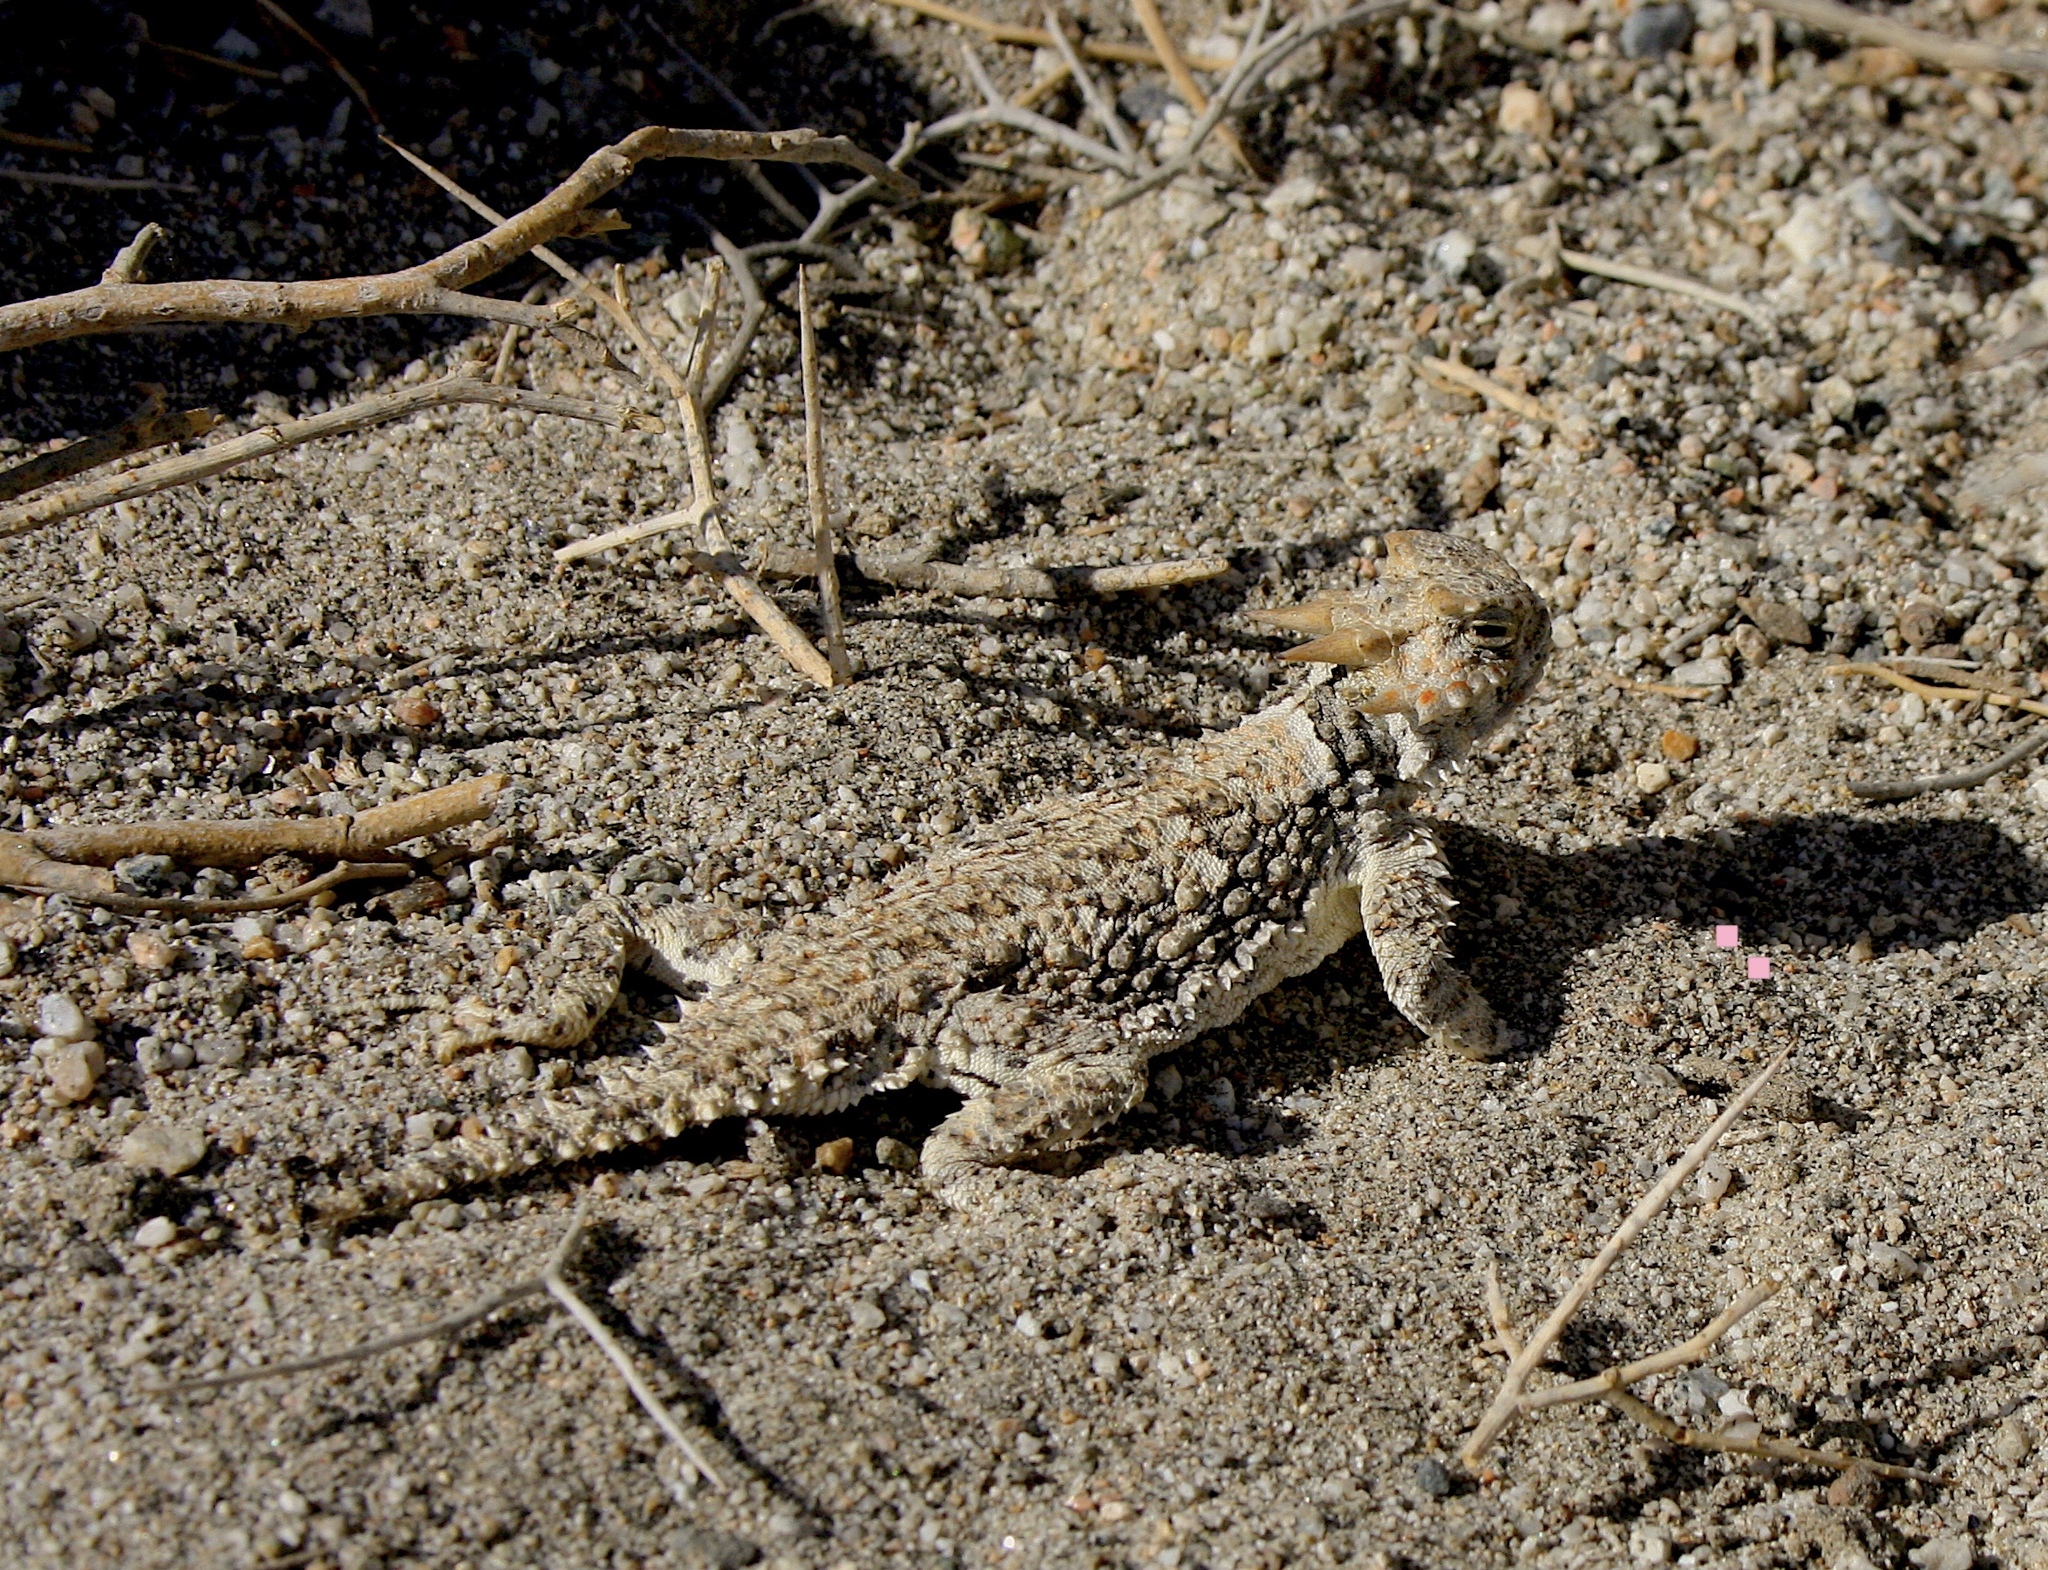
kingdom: Animalia
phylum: Chordata
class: Squamata
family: Phrynosomatidae
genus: Phrynosoma
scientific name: Phrynosoma platyrhinos
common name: Desert horned lizard
